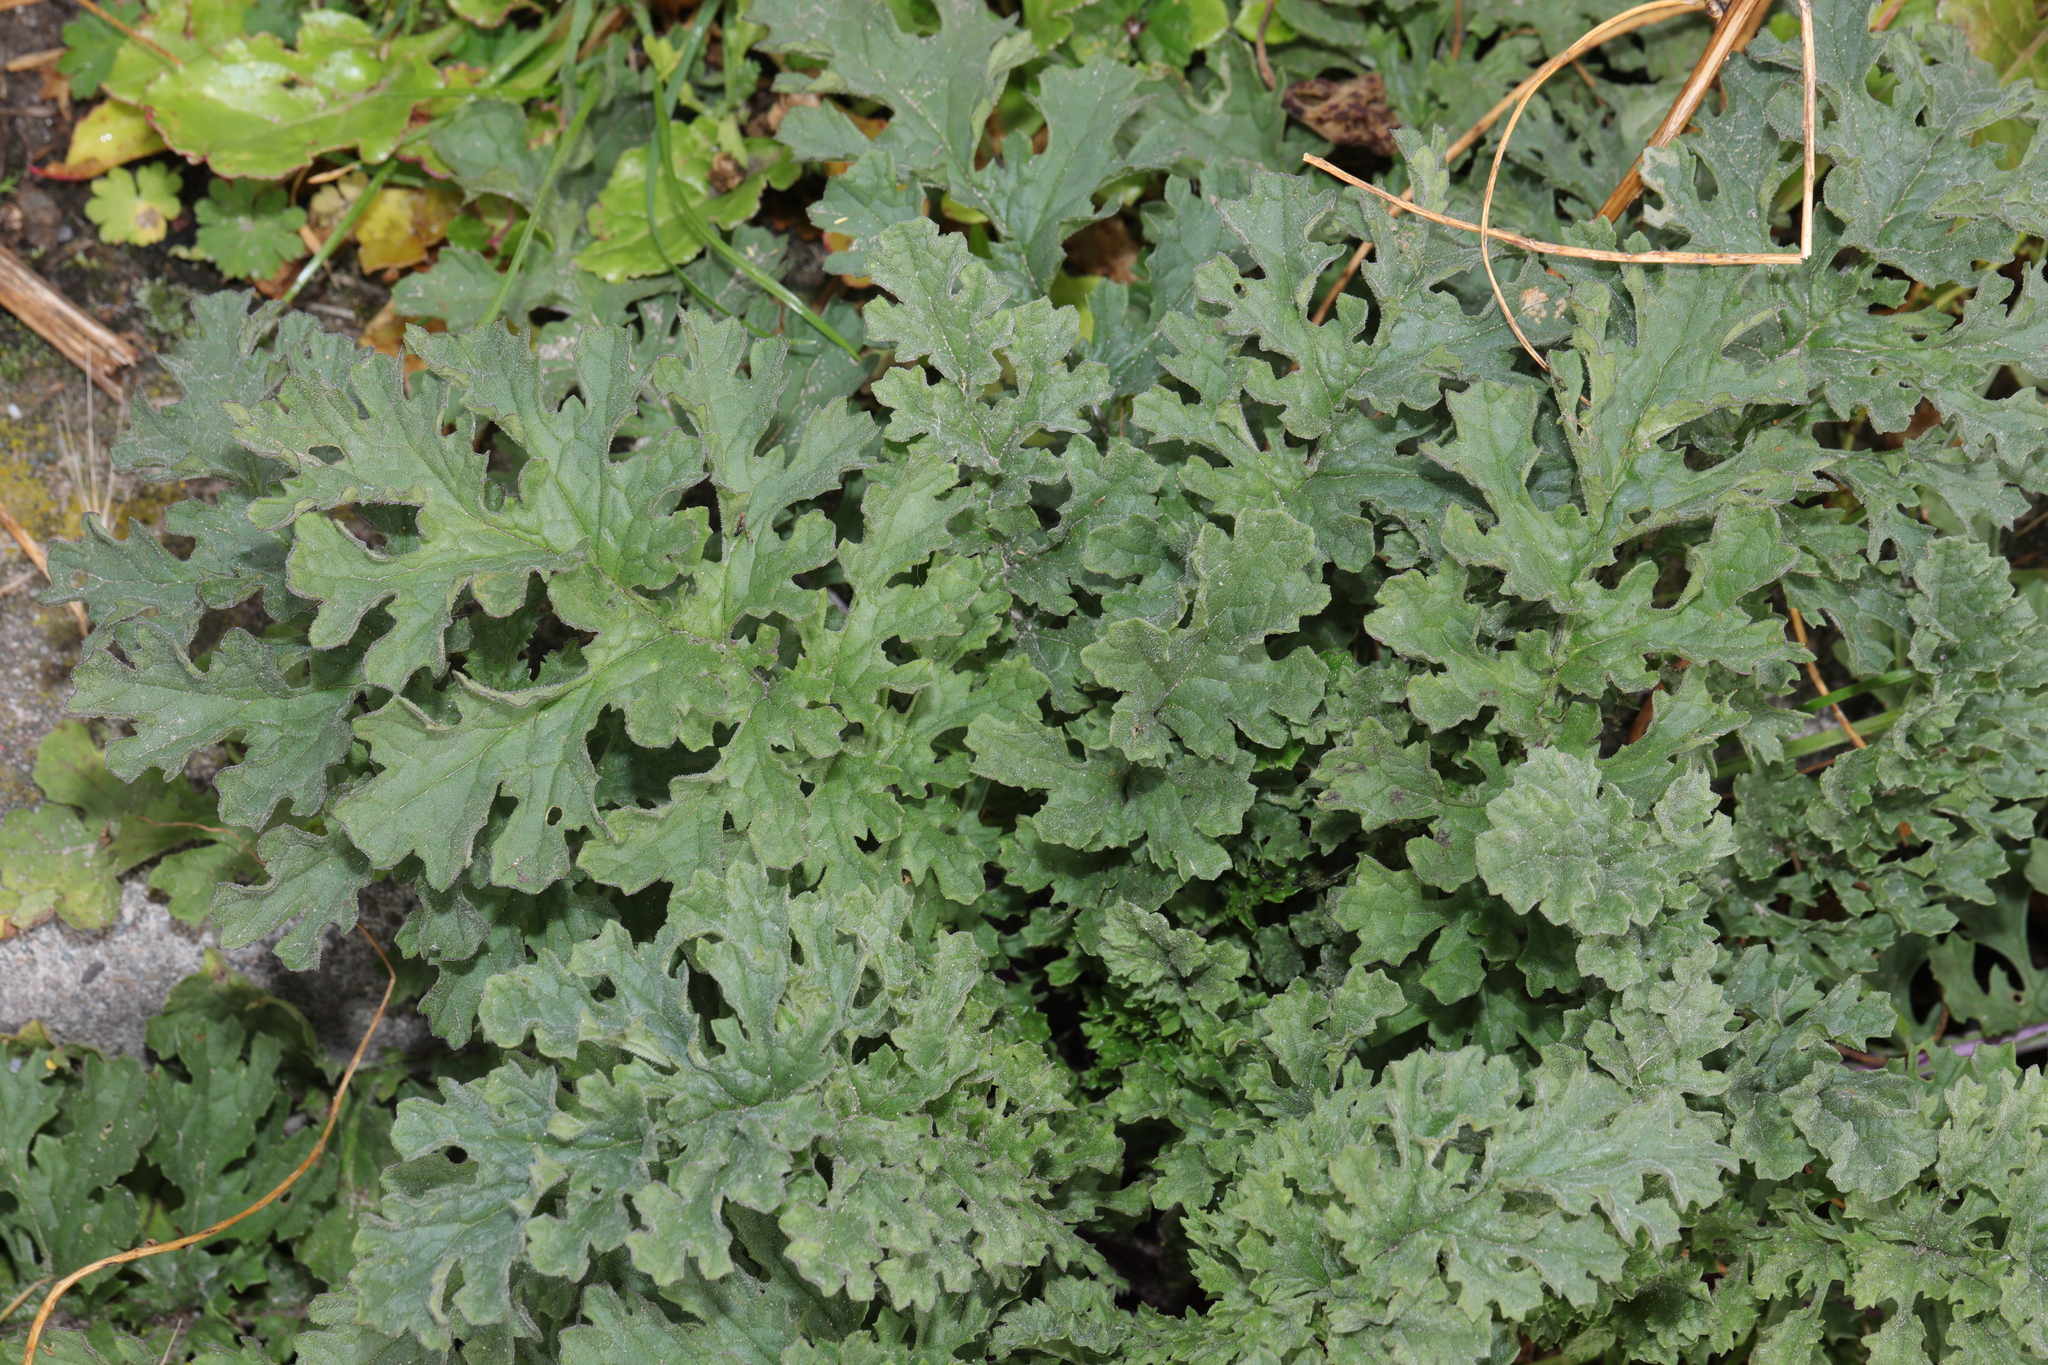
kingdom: Plantae
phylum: Tracheophyta
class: Magnoliopsida
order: Asterales
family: Asteraceae
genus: Jacobaea
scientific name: Jacobaea vulgaris
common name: Stinking willie
